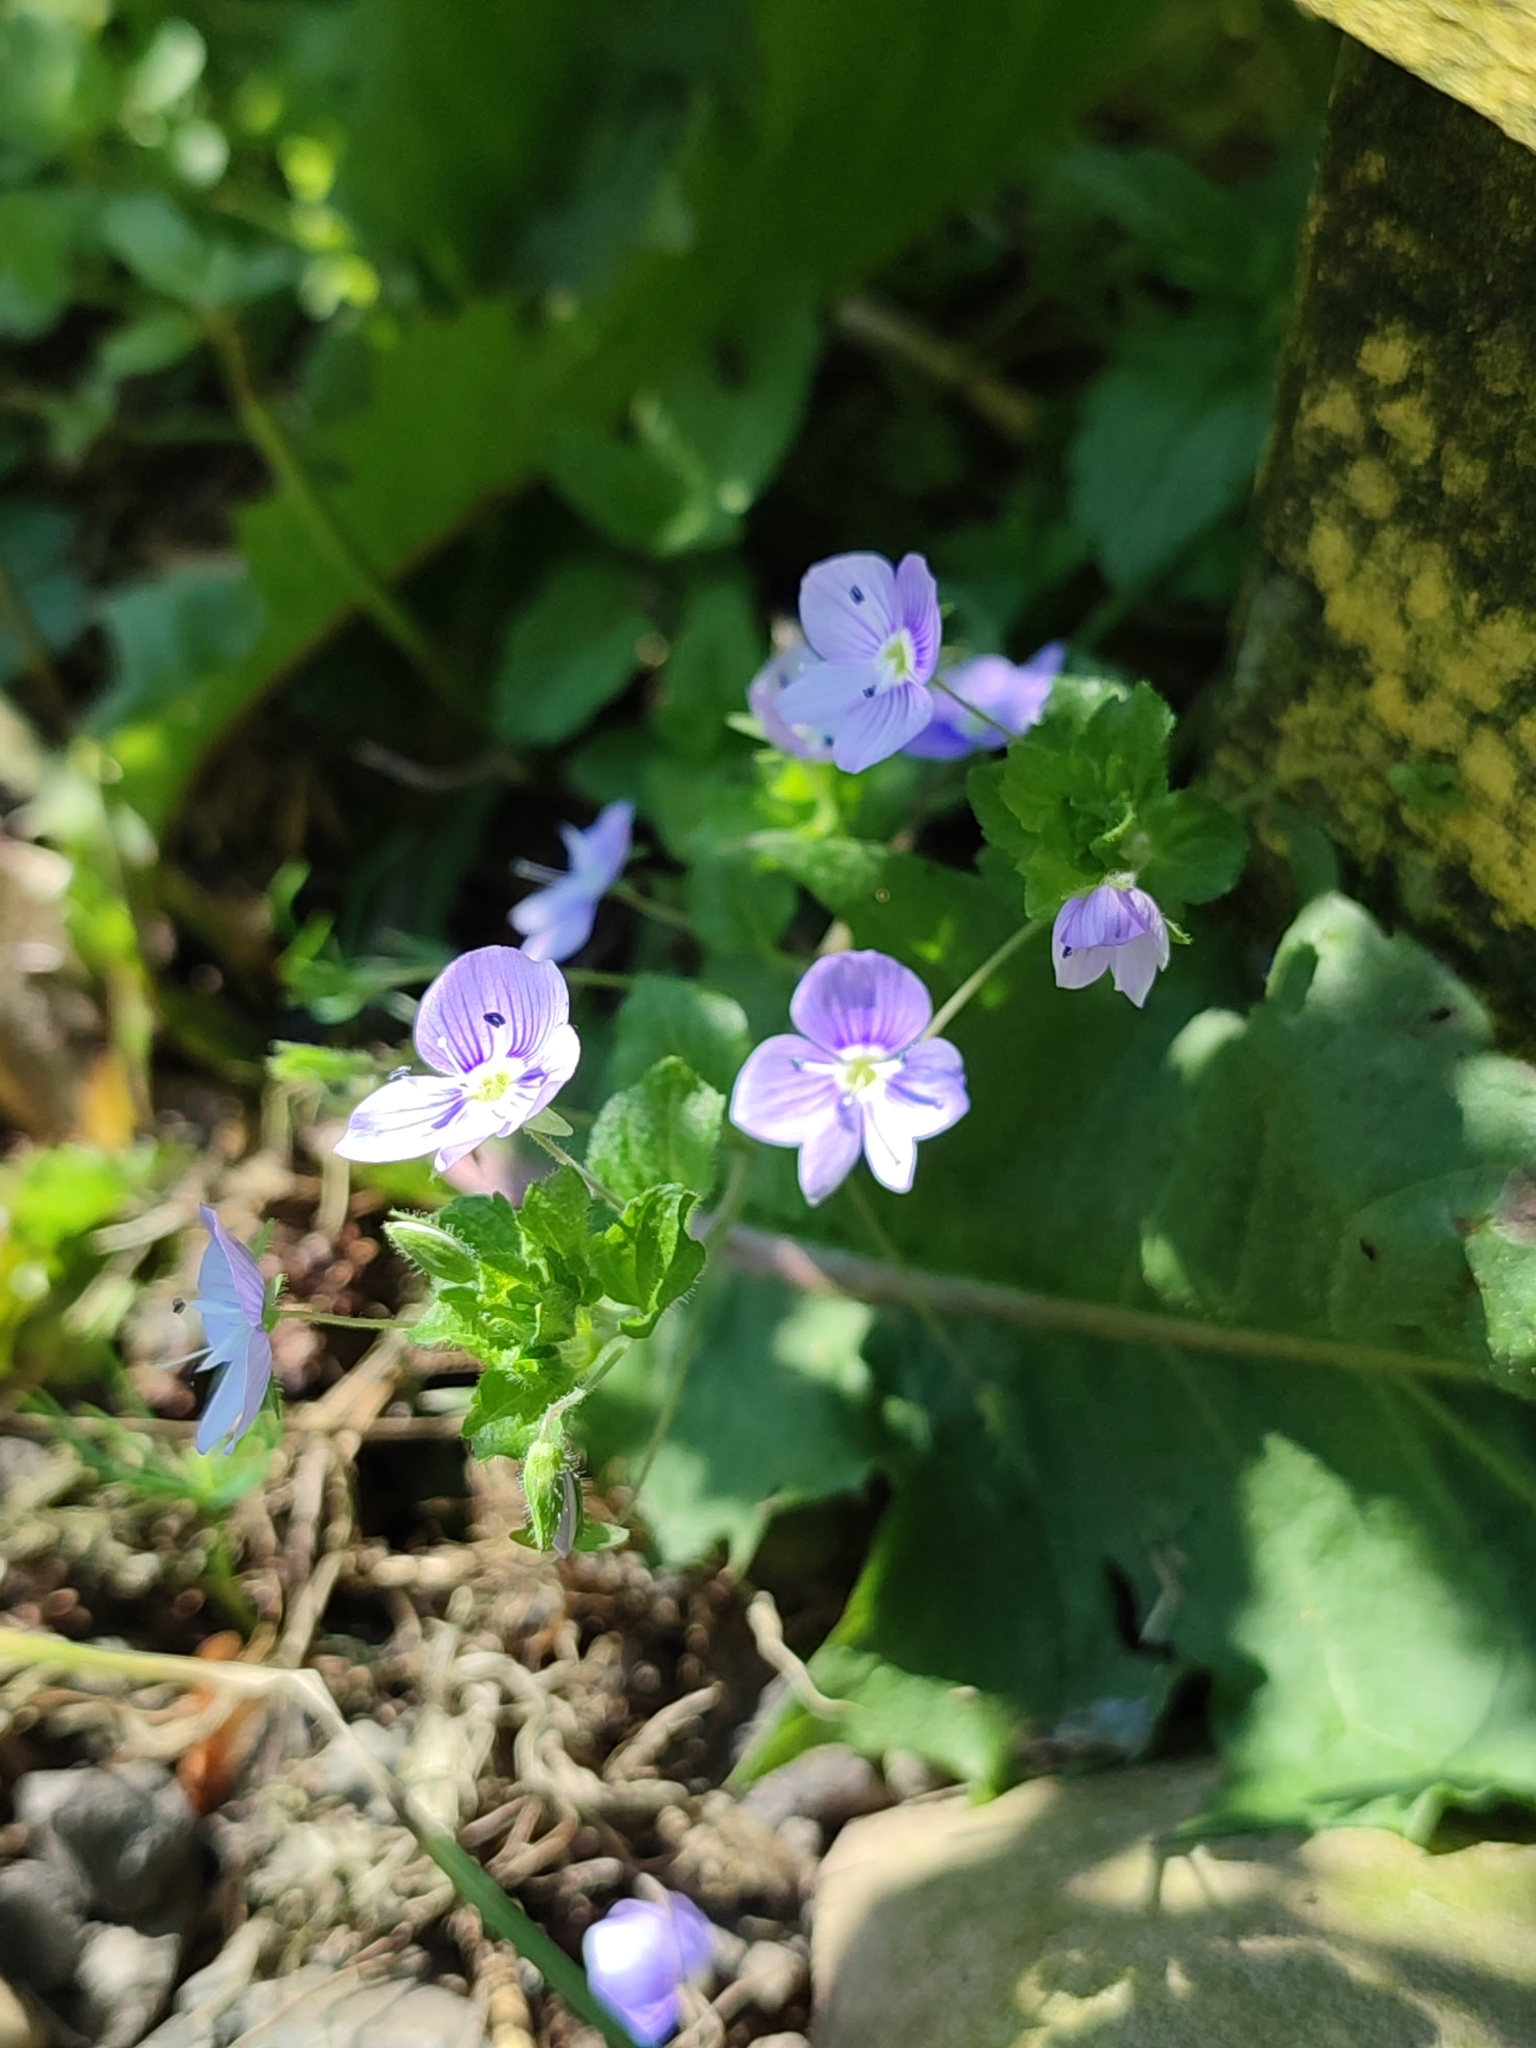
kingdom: Plantae
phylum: Tracheophyta
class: Magnoliopsida
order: Lamiales
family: Plantaginaceae
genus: Veronica
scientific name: Veronica filiformis
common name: Slender speedwell
